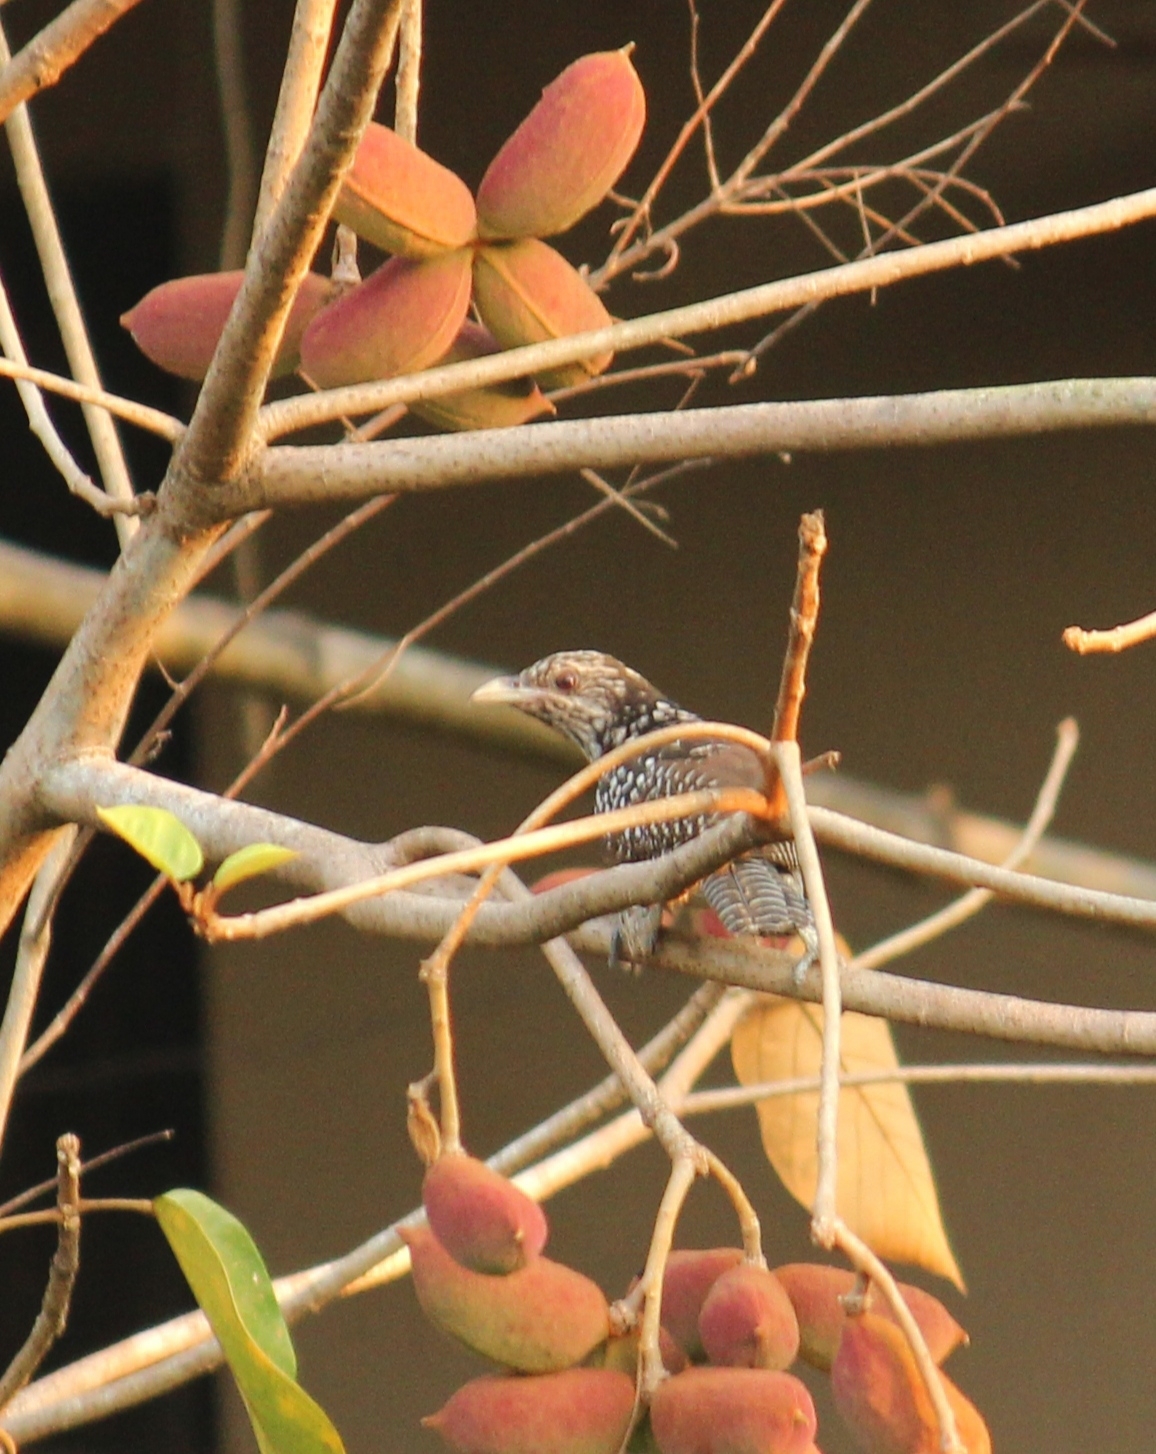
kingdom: Animalia
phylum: Chordata
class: Aves
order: Cuculiformes
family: Cuculidae
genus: Eudynamys
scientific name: Eudynamys scolopaceus
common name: Asian koel
